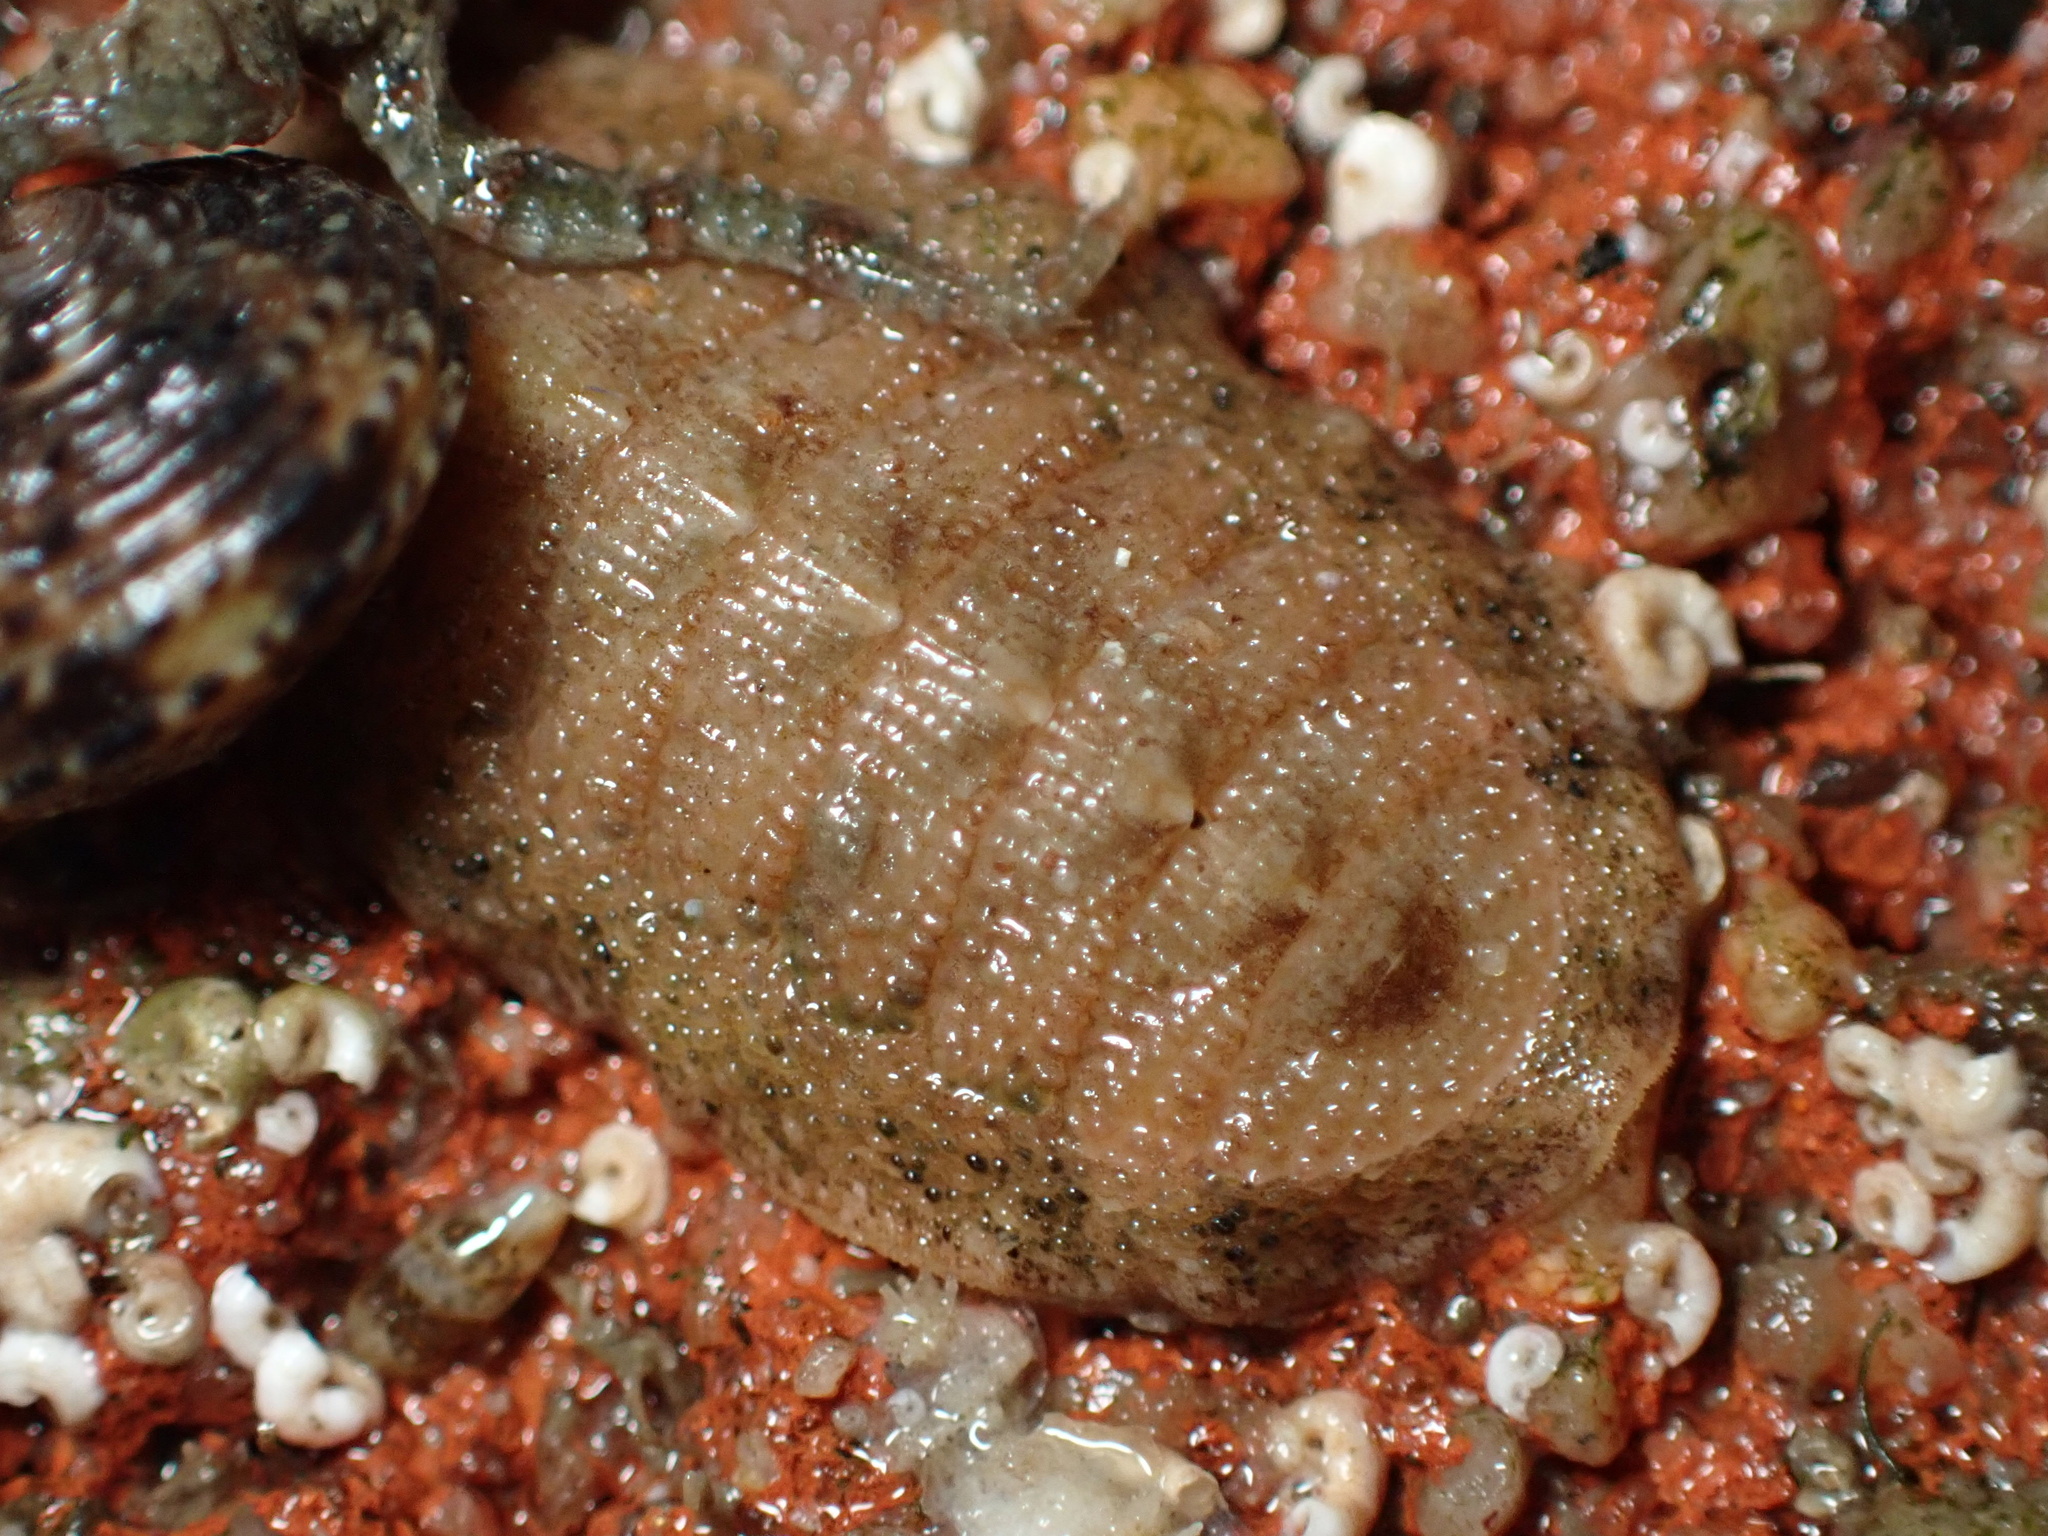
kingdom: Animalia
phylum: Mollusca
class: Polyplacophora
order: Chitonida
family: Ischnochitonidae
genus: Lepidozona
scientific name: Lepidozona pectinulata
